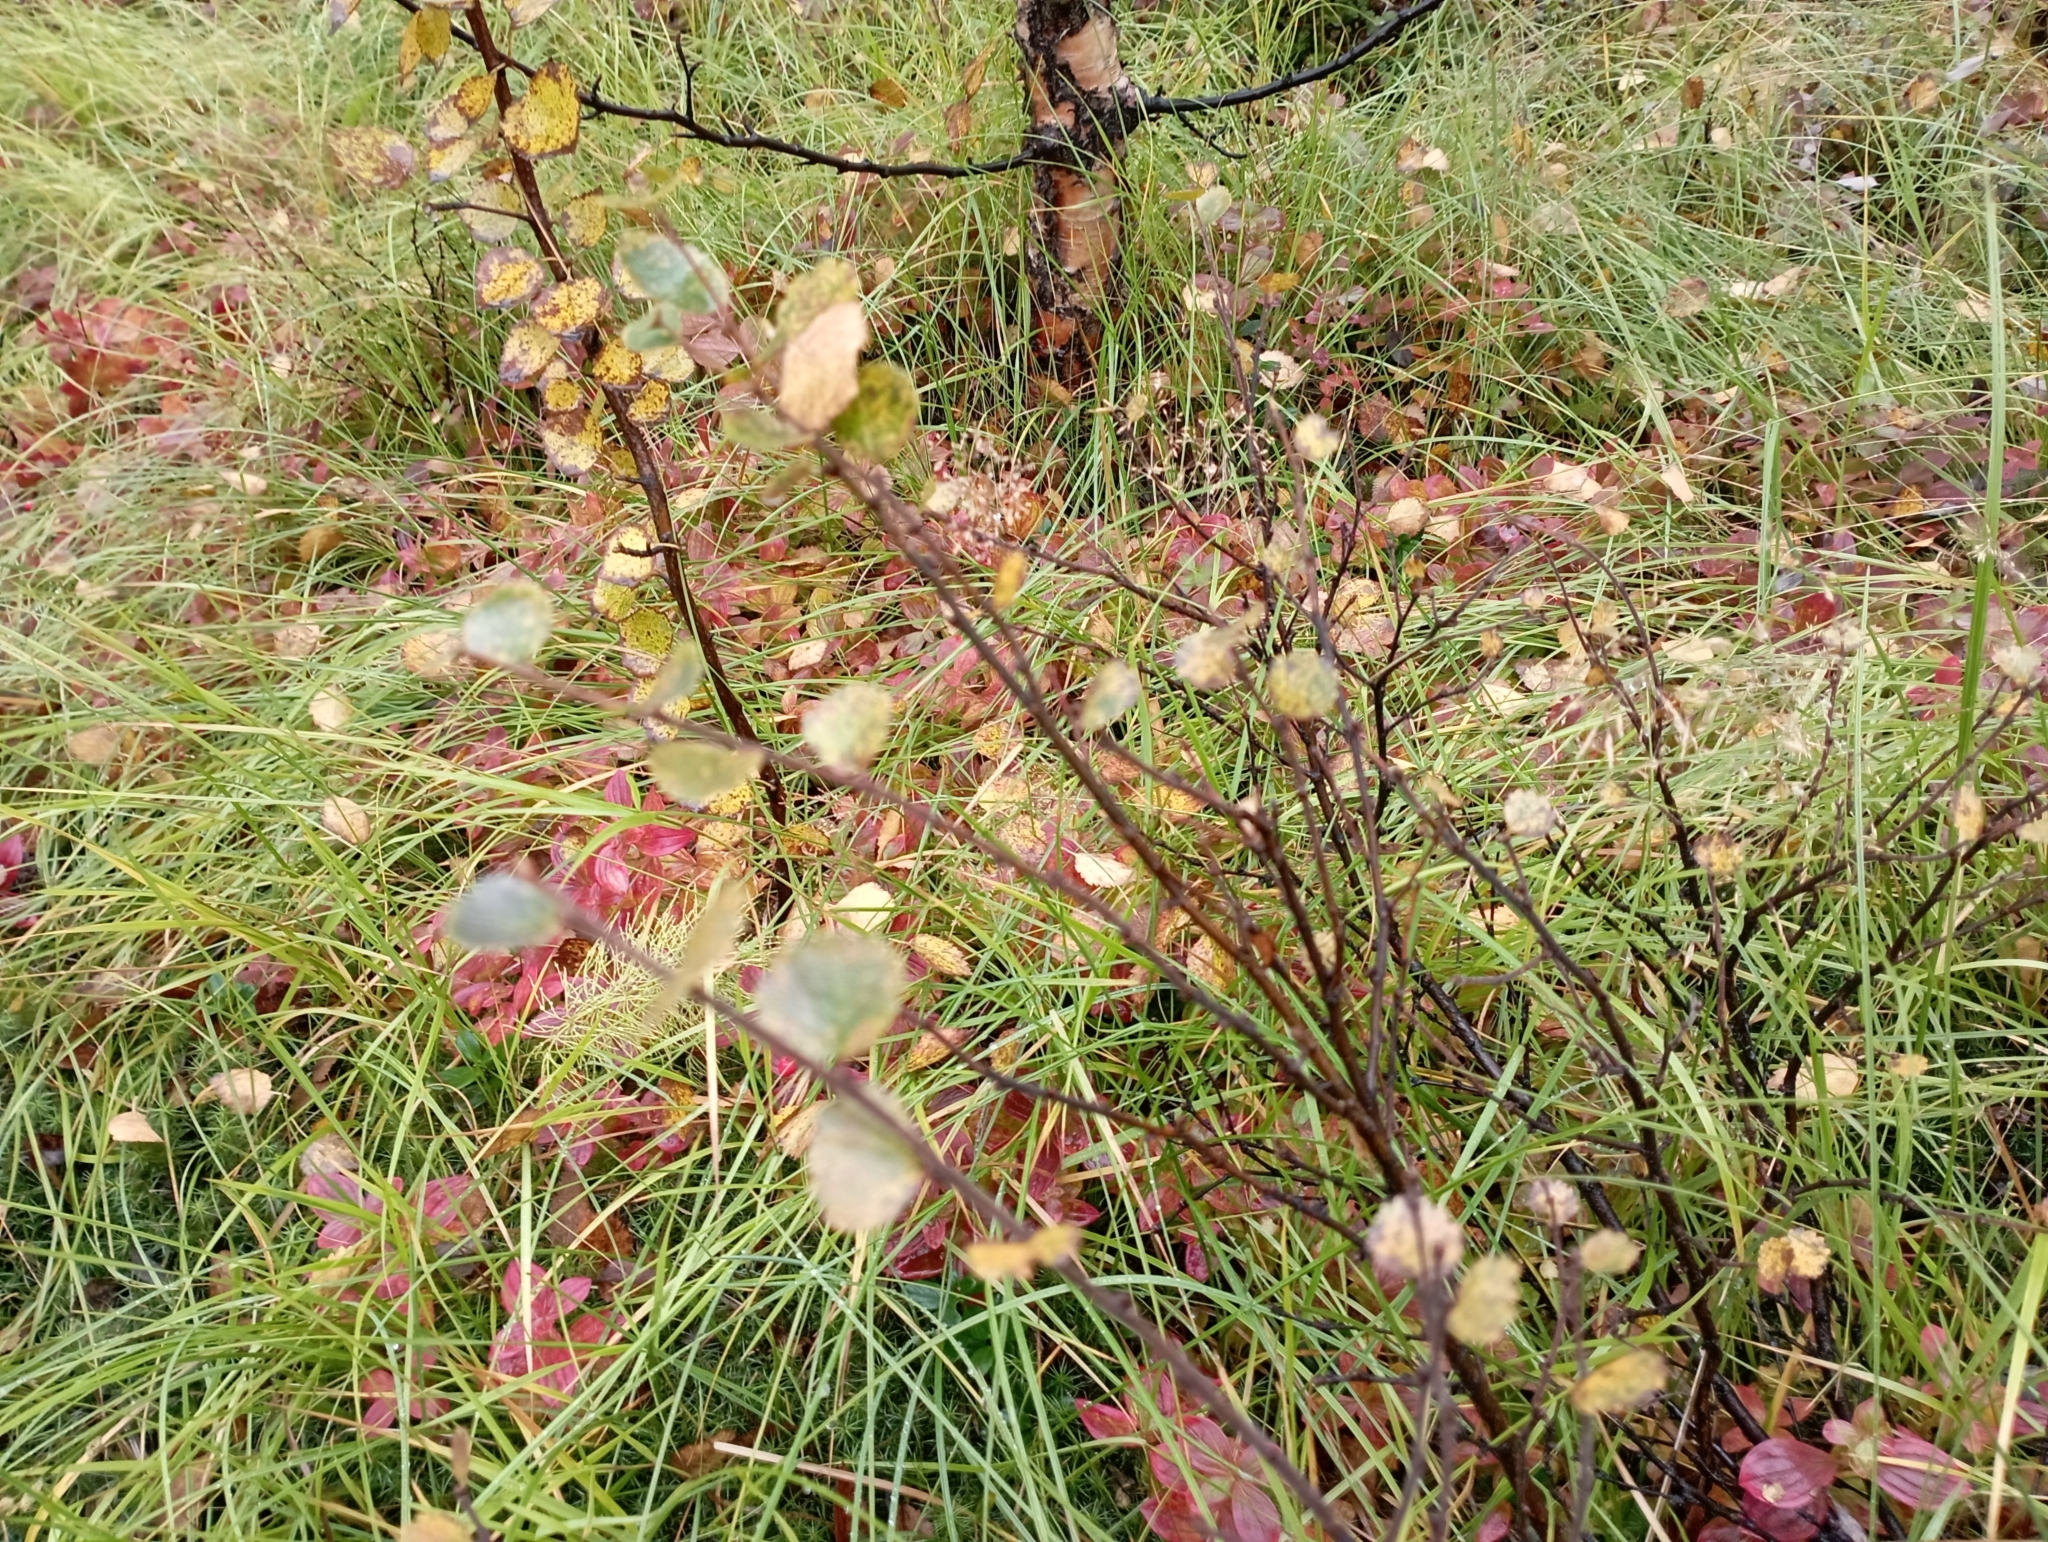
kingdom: Plantae
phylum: Tracheophyta
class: Magnoliopsida
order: Fagales
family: Betulaceae
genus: Betula
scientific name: Betula nana
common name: Arctic dwarf birch
